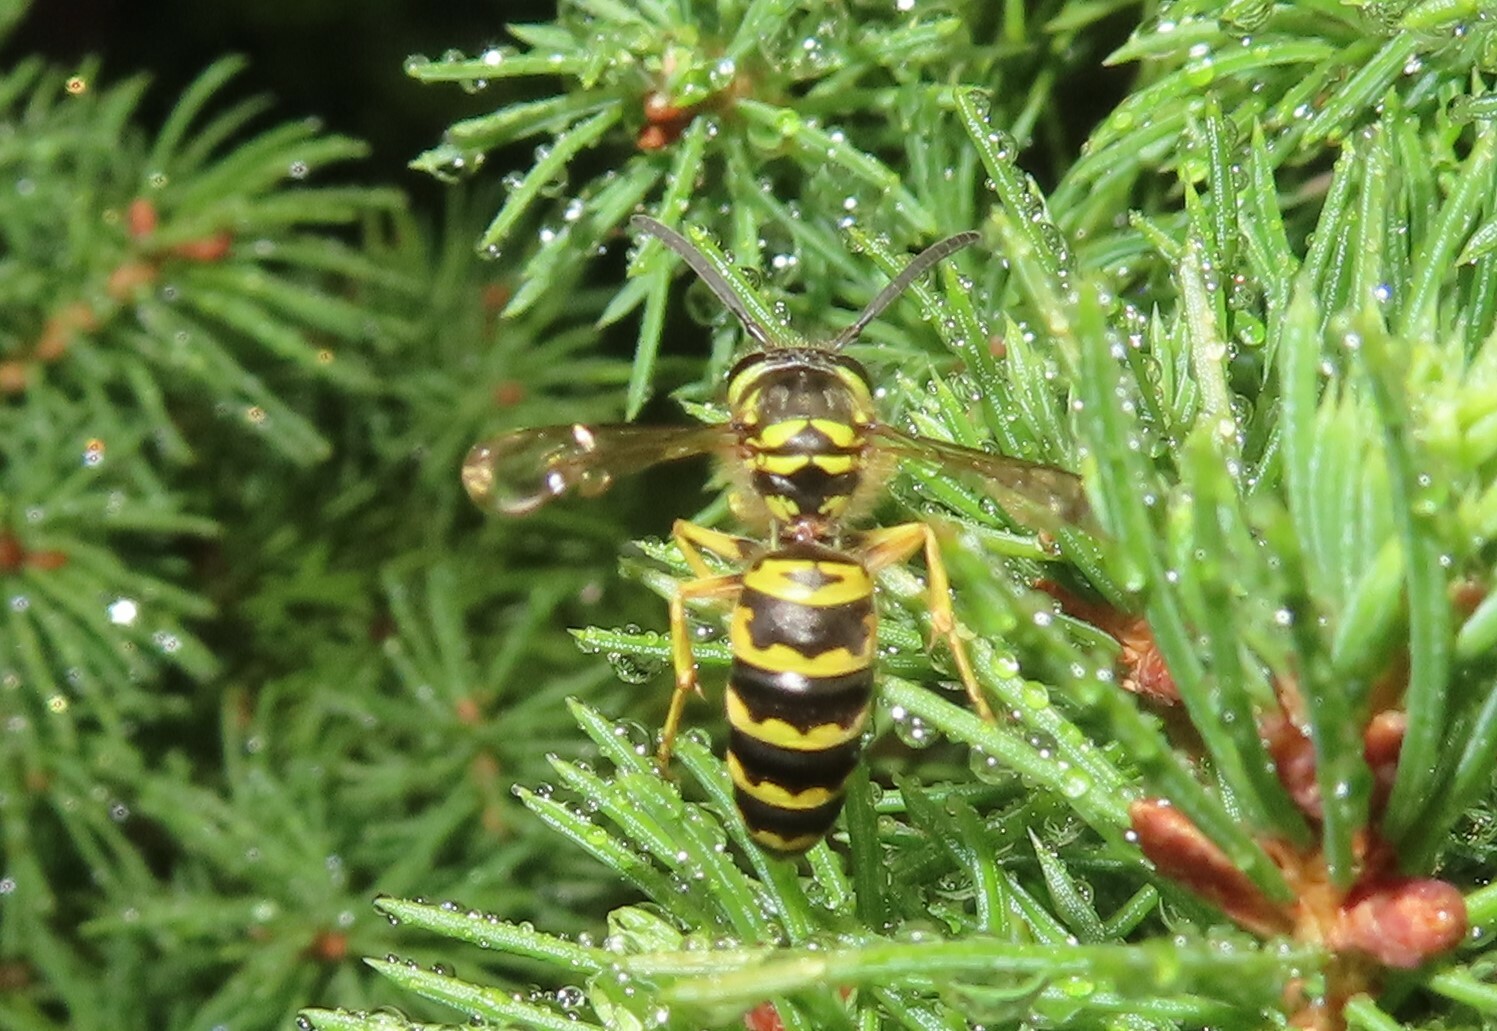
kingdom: Animalia
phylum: Arthropoda
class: Insecta
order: Hymenoptera
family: Vespidae
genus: Vespula
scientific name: Vespula maculifrons
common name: Eastern yellowjacket
